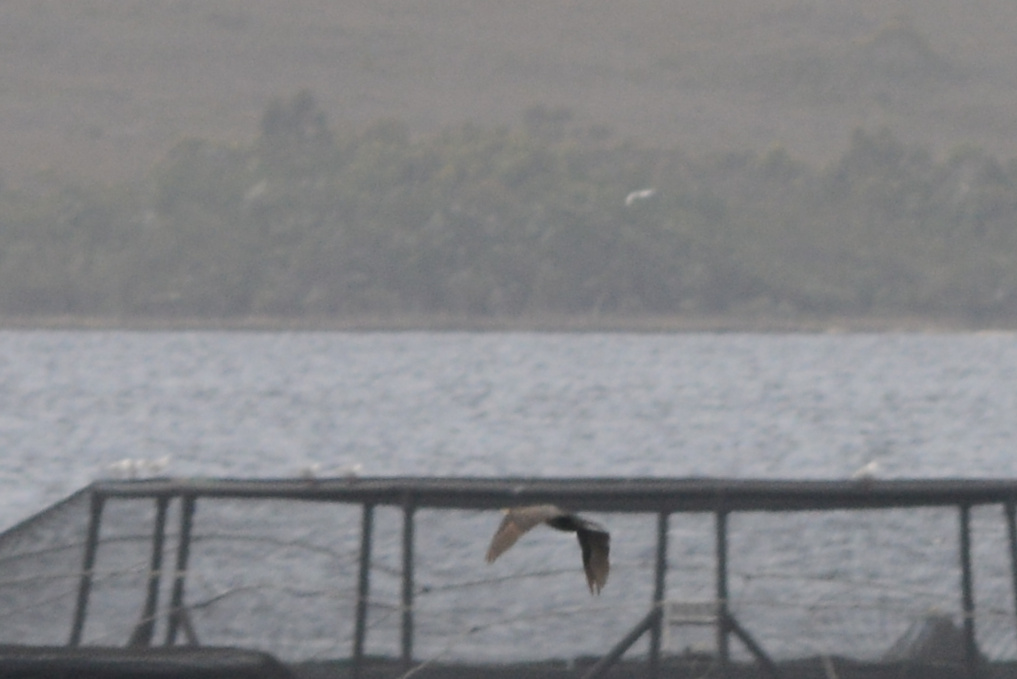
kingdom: Animalia
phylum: Chordata
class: Aves
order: Charadriiformes
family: Laridae
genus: Chroicocephalus
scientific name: Chroicocephalus novaehollandiae
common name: Silver gull
